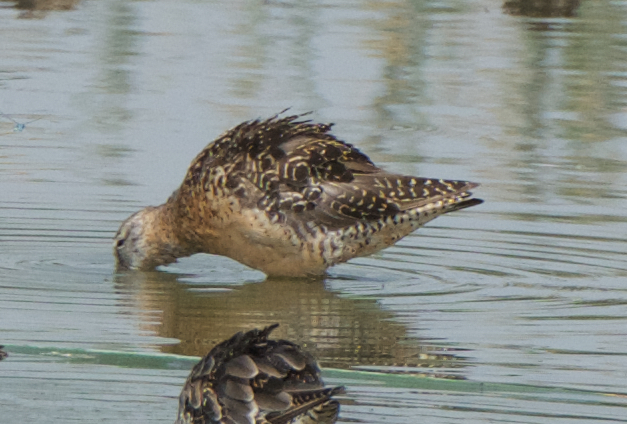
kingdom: Animalia
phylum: Chordata
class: Aves
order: Charadriiformes
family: Scolopacidae
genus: Limnodromus
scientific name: Limnodromus scolopaceus
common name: Long-billed dowitcher
